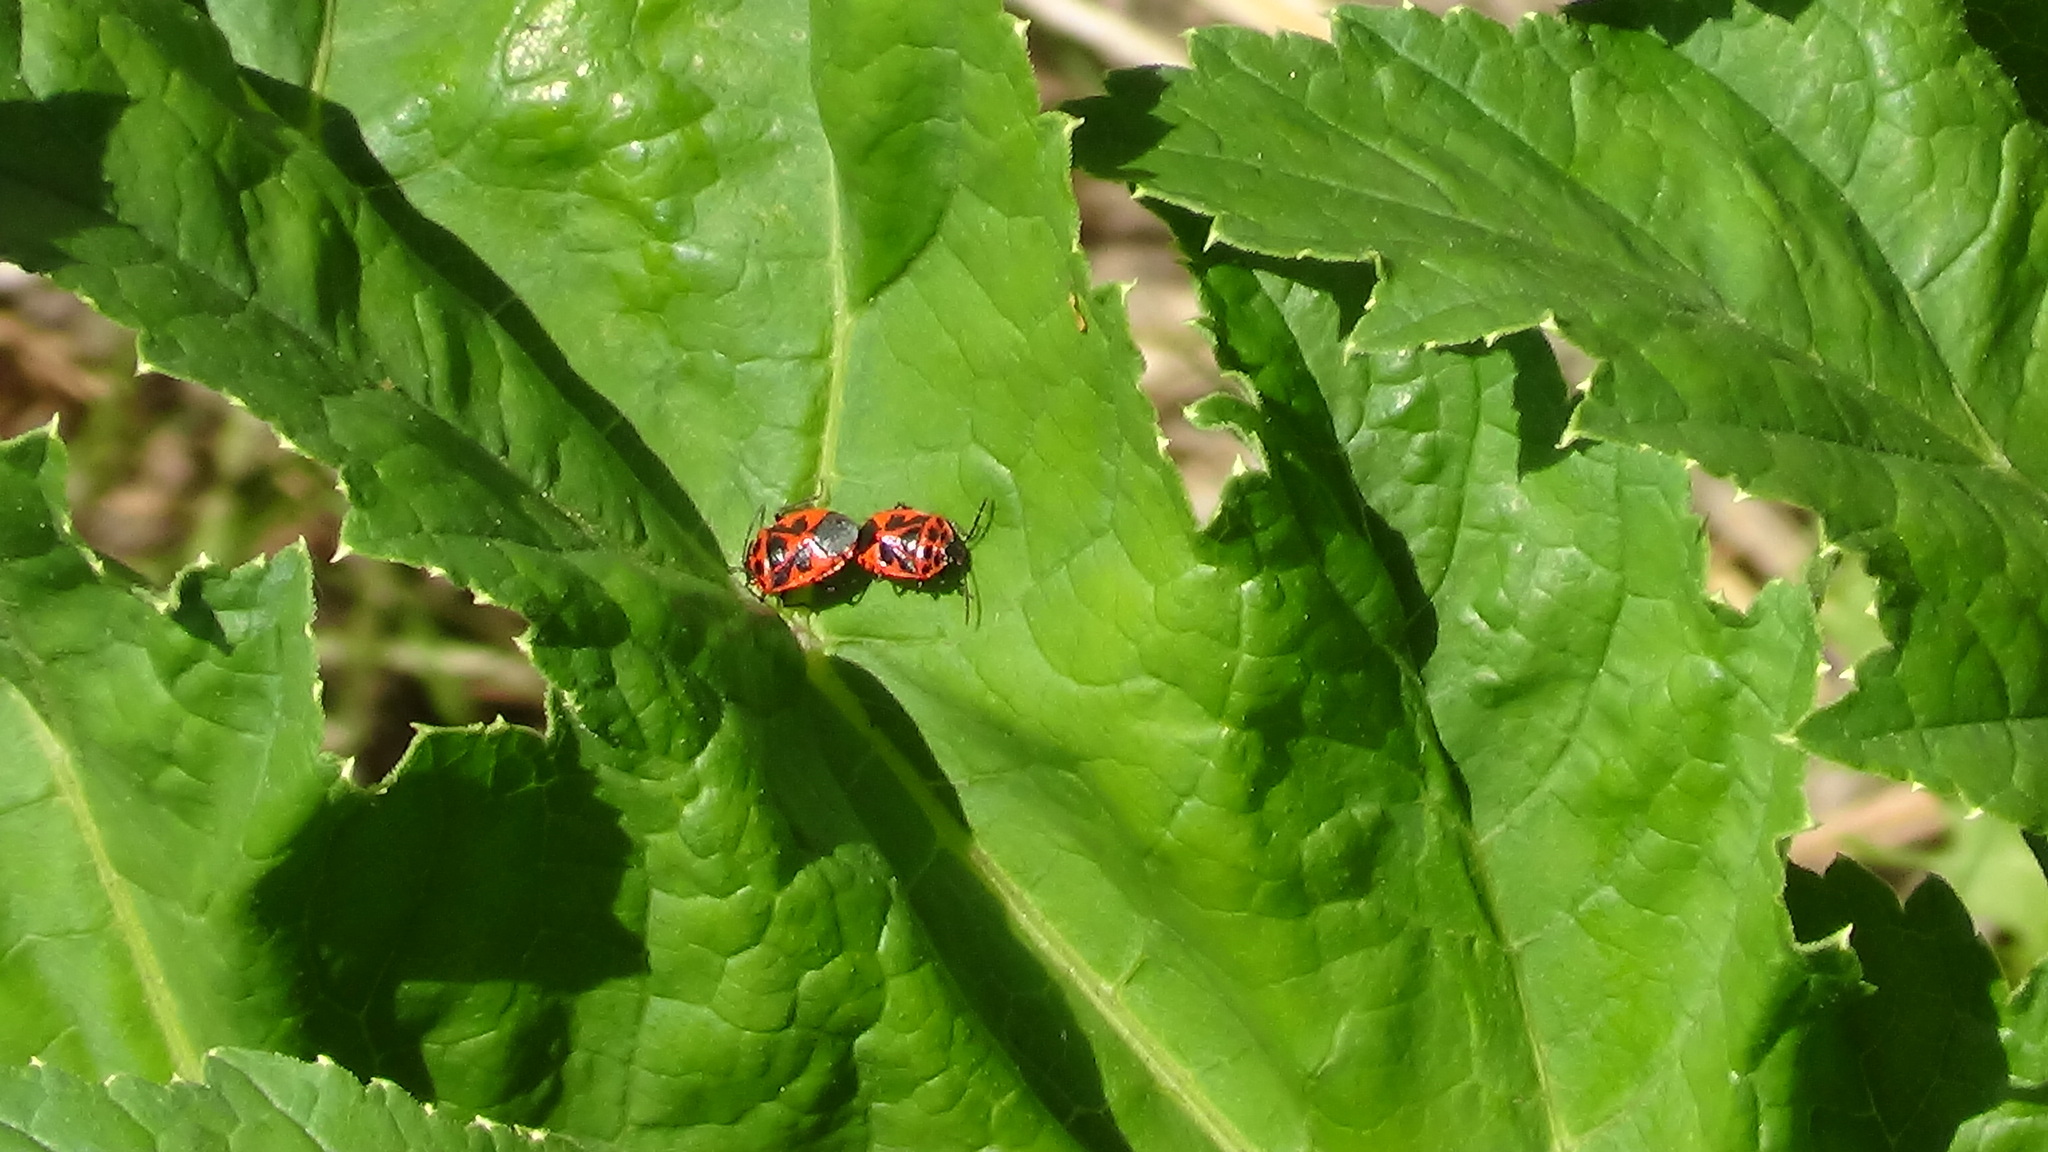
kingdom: Animalia
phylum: Arthropoda
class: Insecta
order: Hemiptera
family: Pentatomidae
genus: Eurydema
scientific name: Eurydema dominulus
